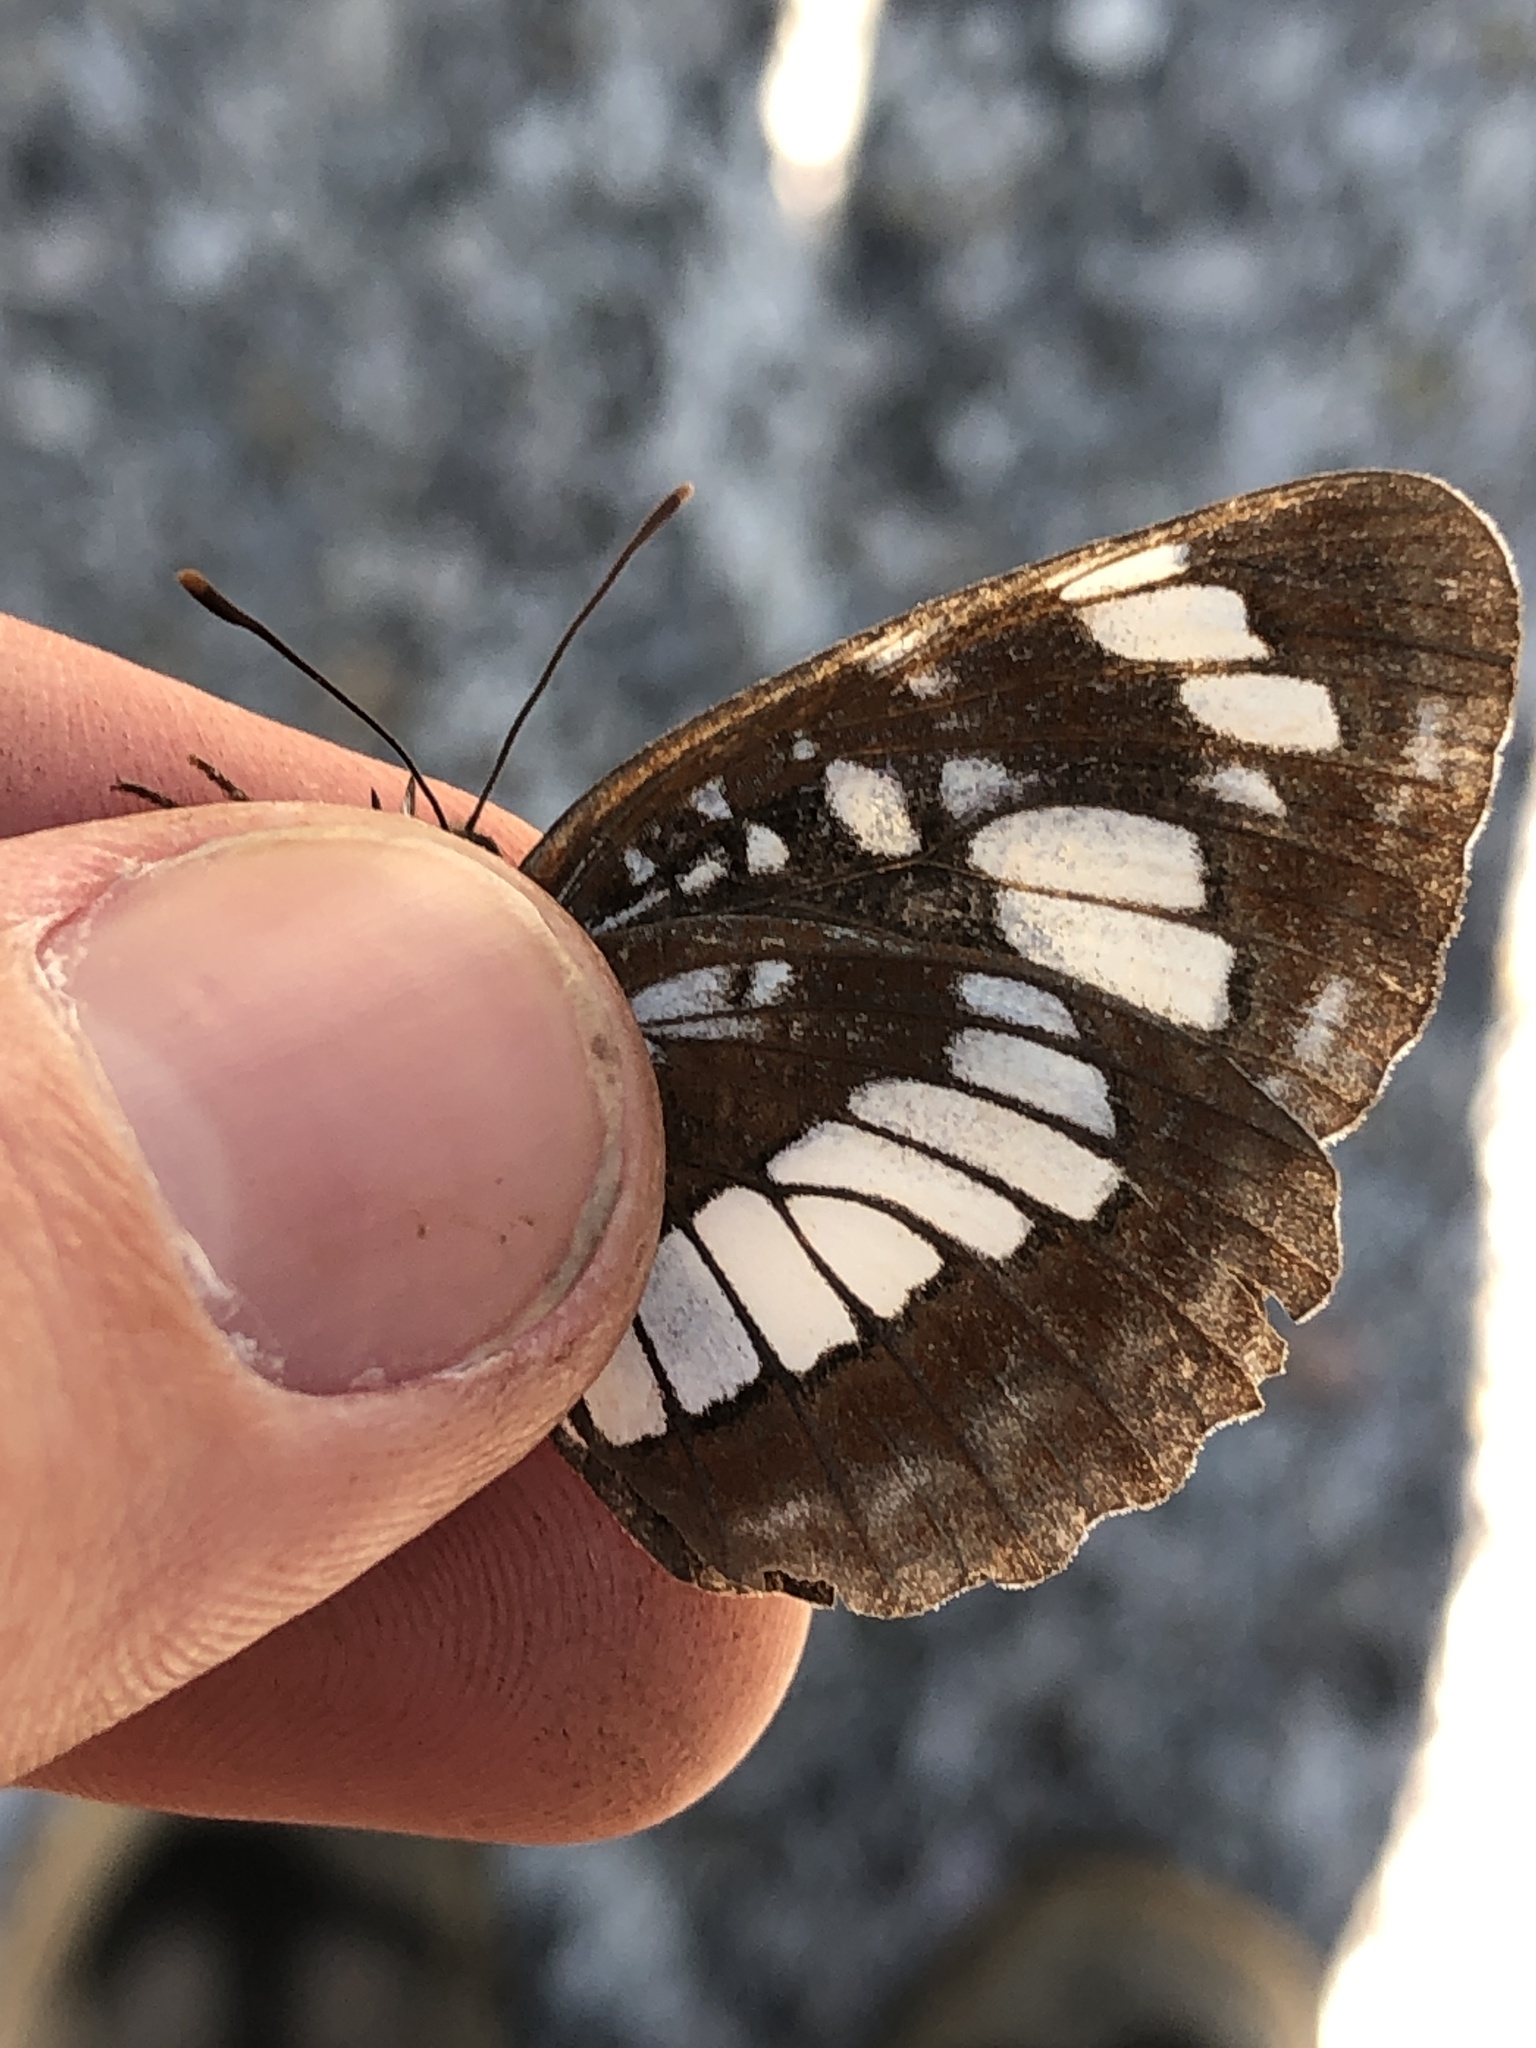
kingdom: Animalia
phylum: Arthropoda
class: Insecta
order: Lepidoptera
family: Nymphalidae
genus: Neptis
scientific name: Neptis rivularis
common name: Hungarian glider
